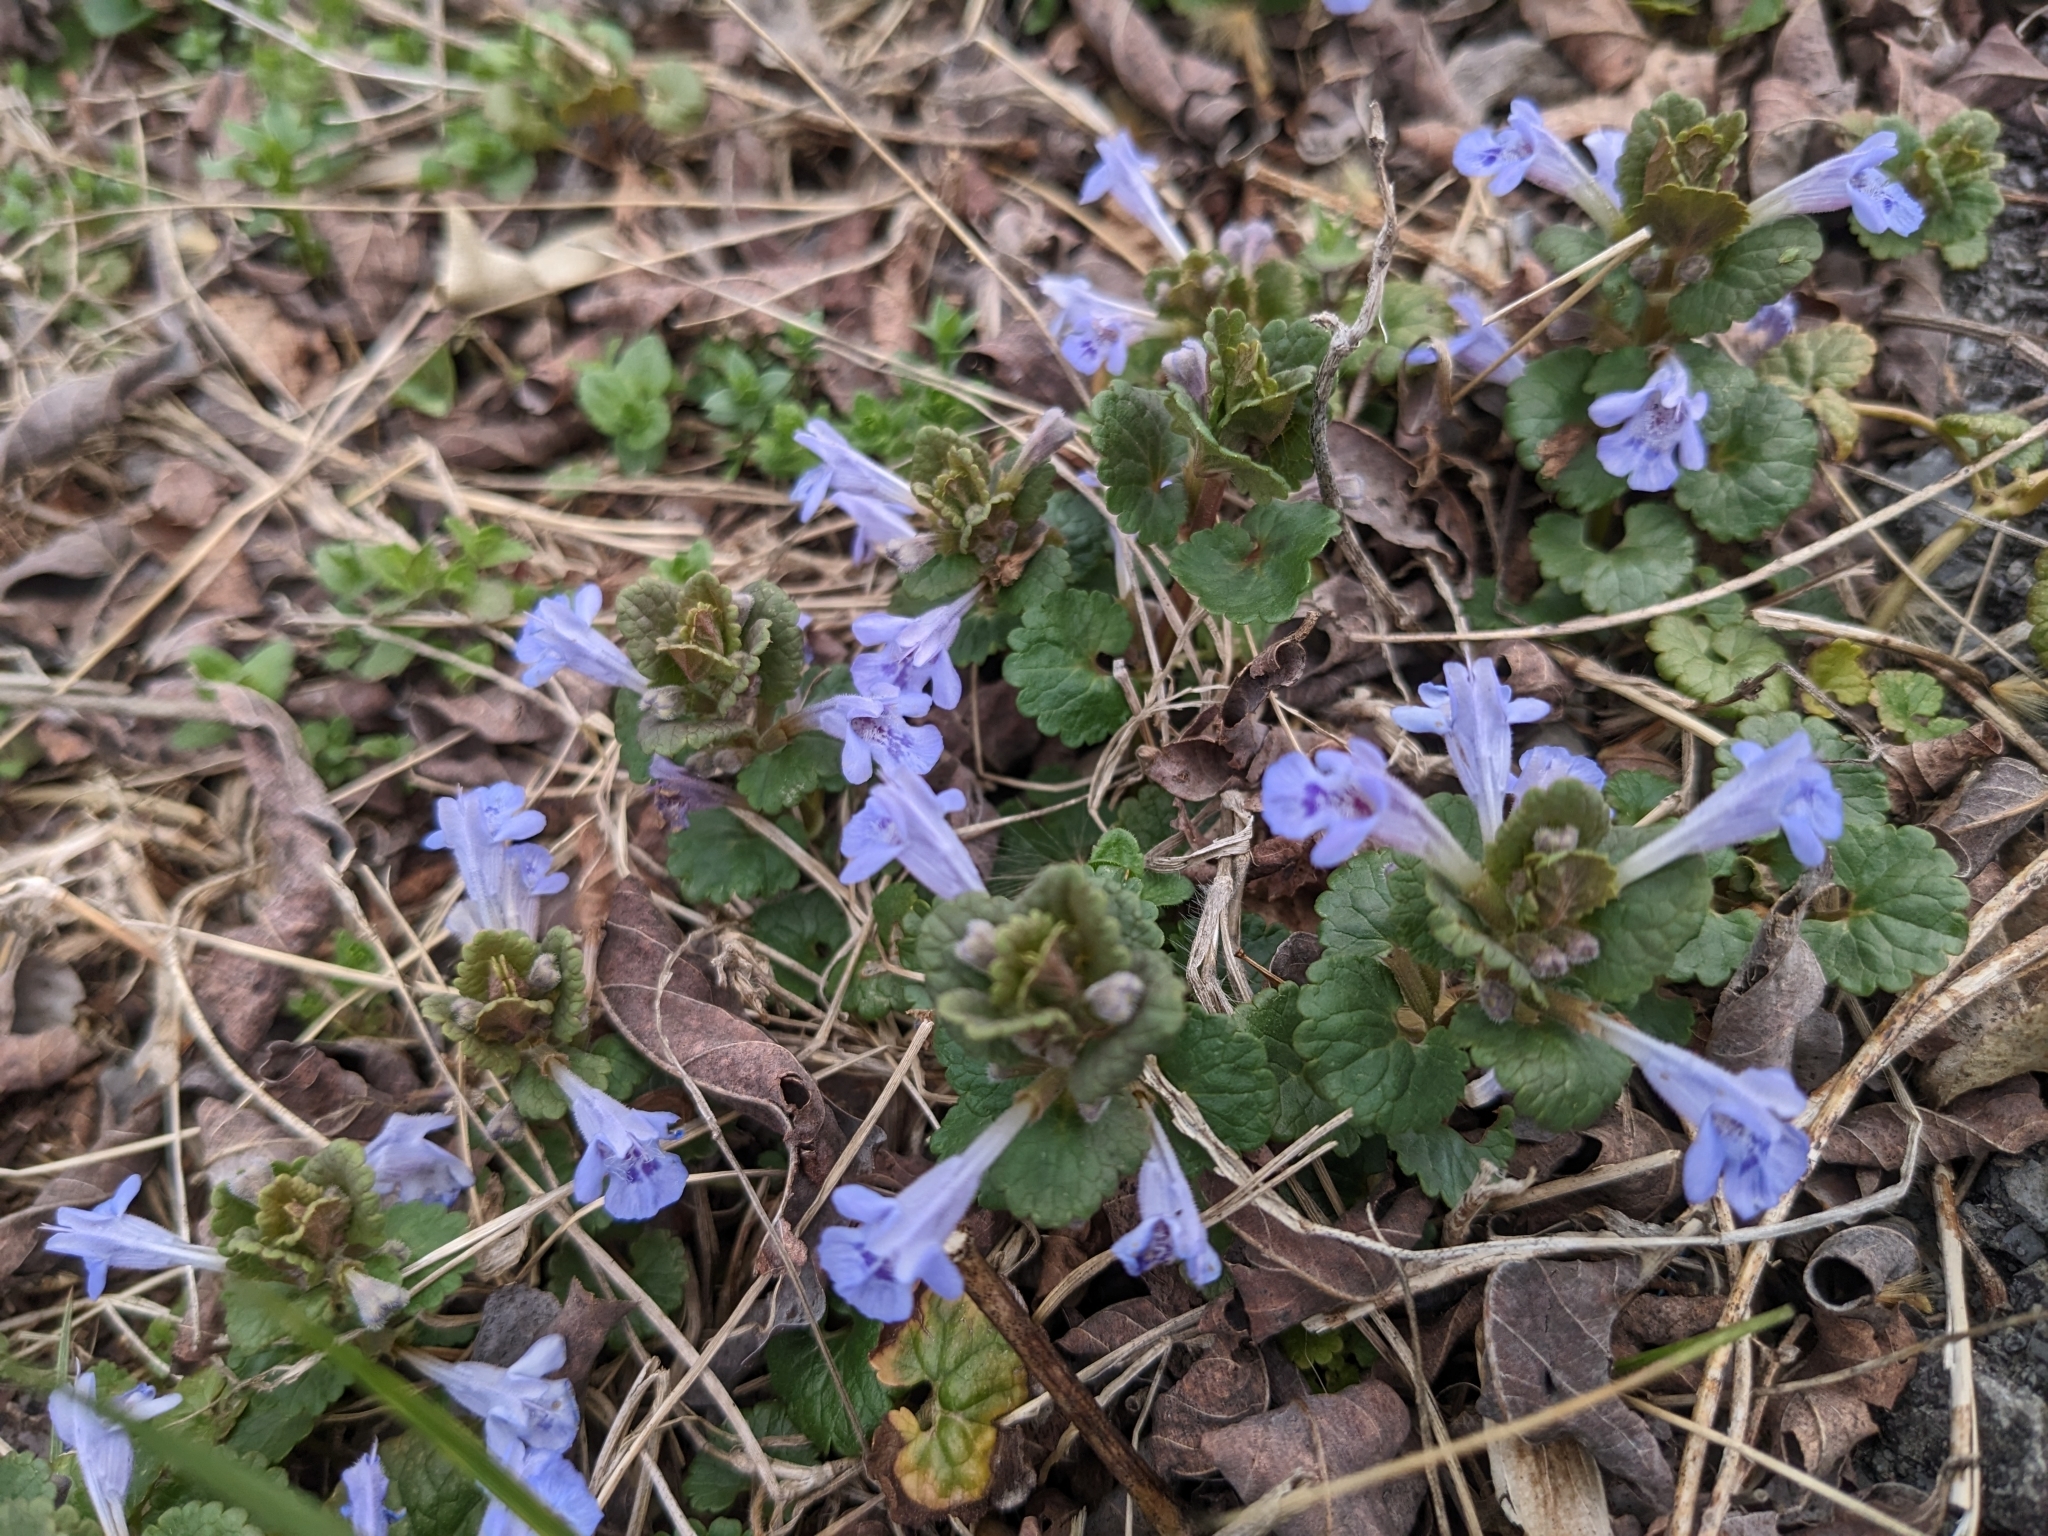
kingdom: Plantae
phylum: Tracheophyta
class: Magnoliopsida
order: Lamiales
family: Lamiaceae
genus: Glechoma
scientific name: Glechoma hederacea
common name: Ground ivy
